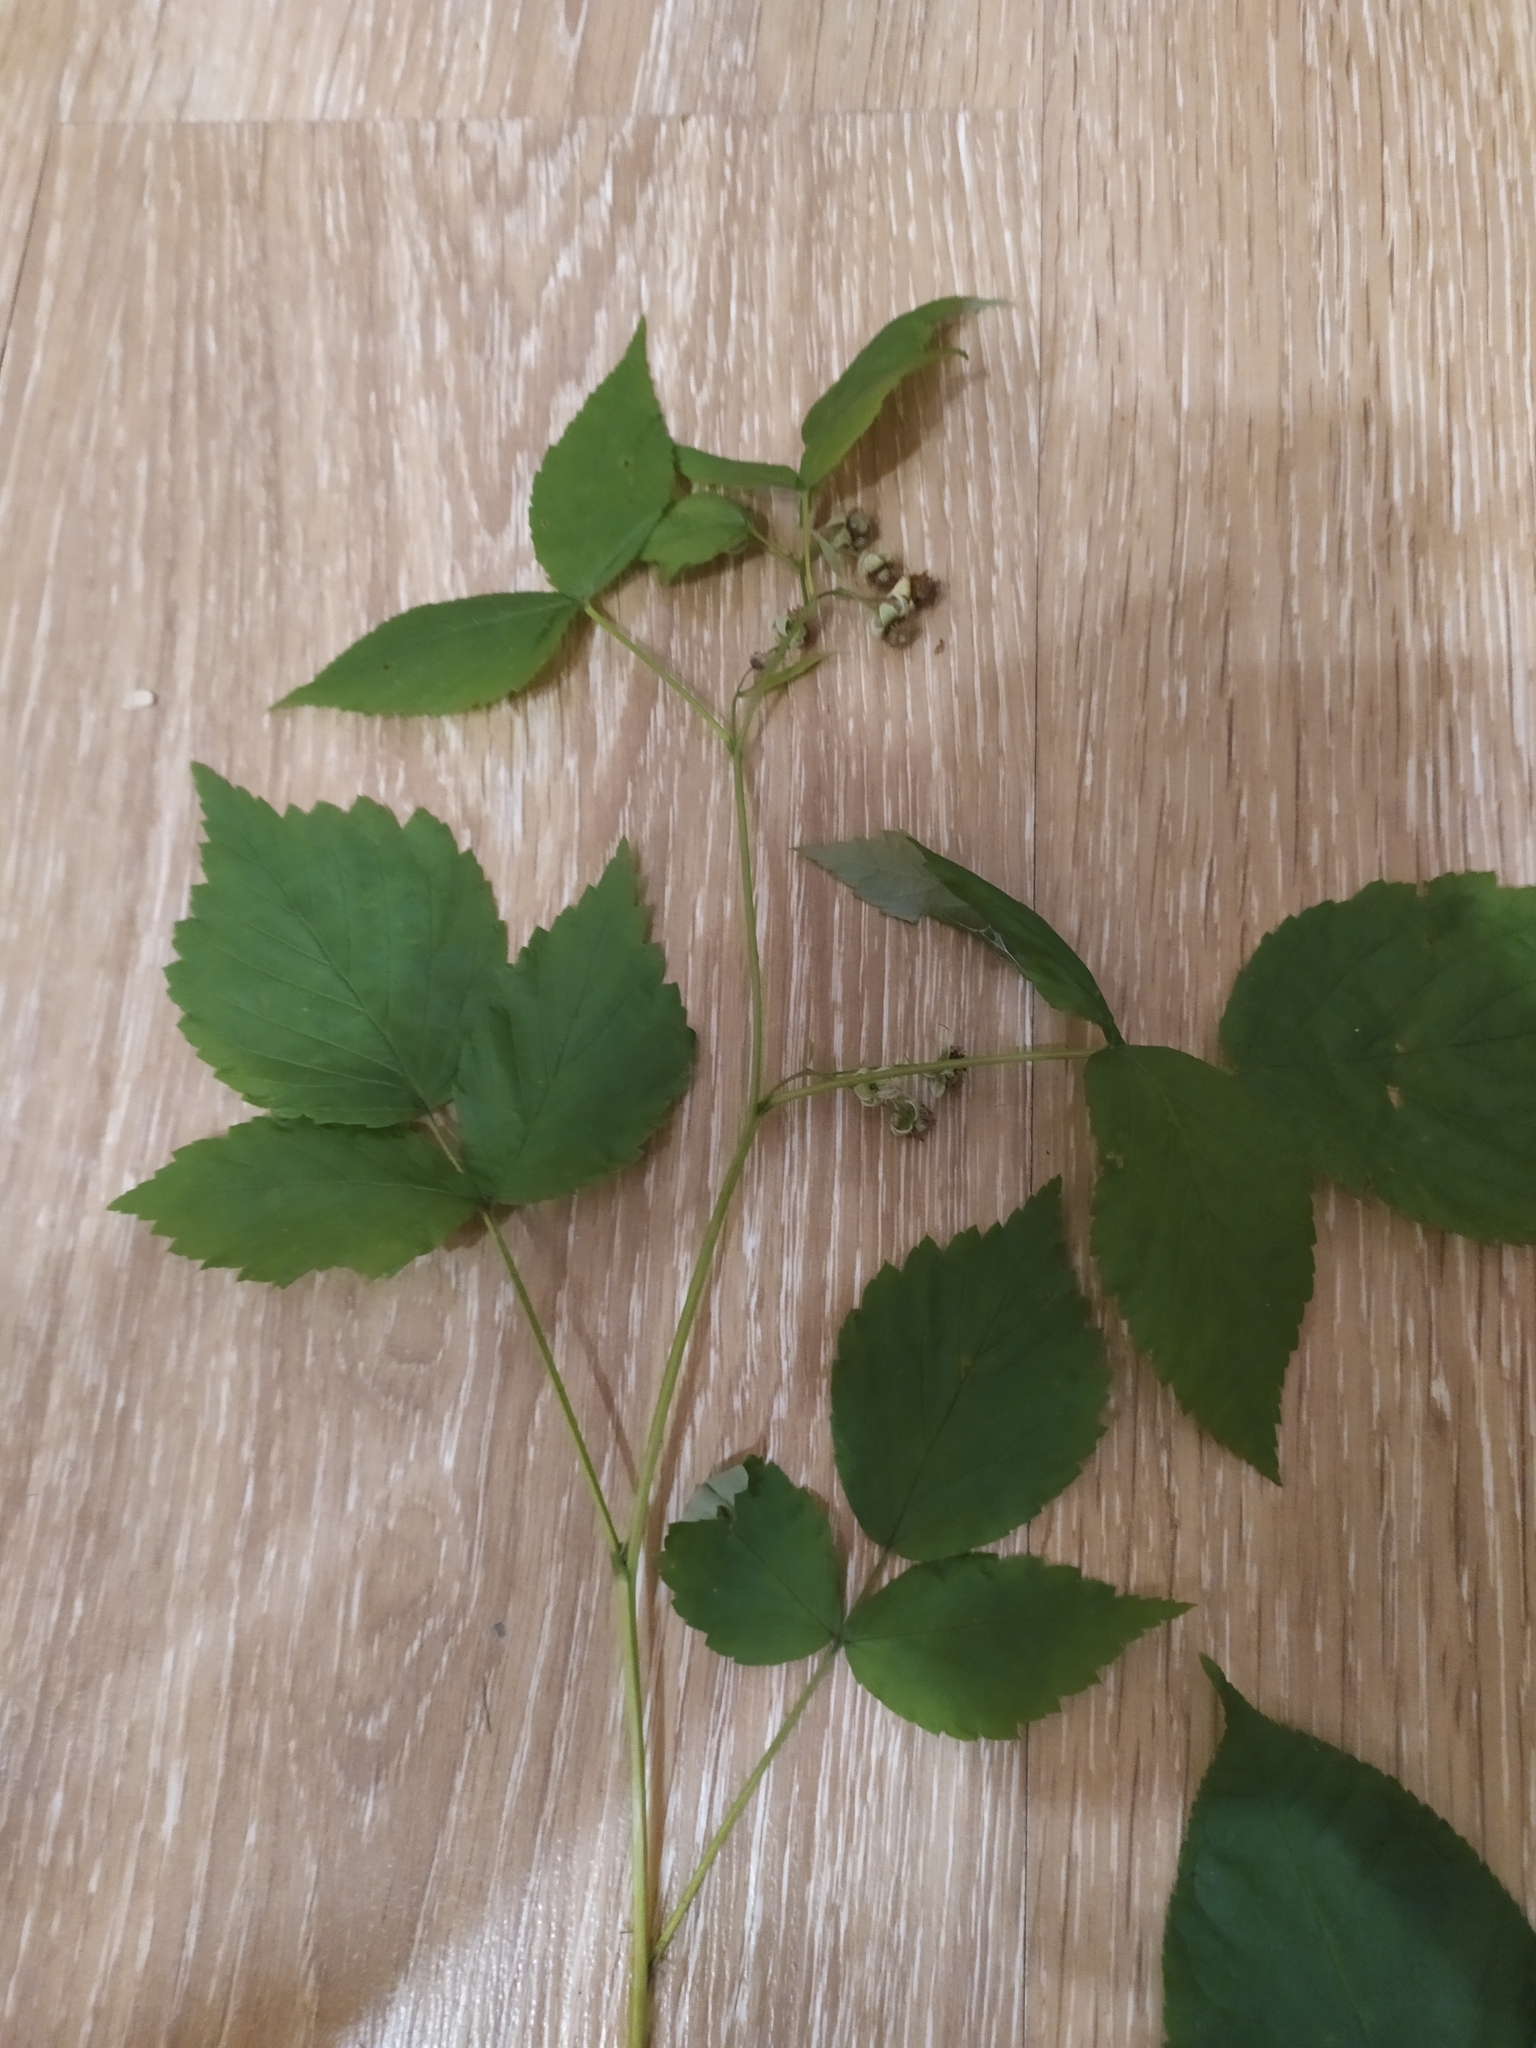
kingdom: Plantae
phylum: Tracheophyta
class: Magnoliopsida
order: Rosales
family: Rosaceae
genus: Rubus
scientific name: Rubus idaeus
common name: Raspberry
